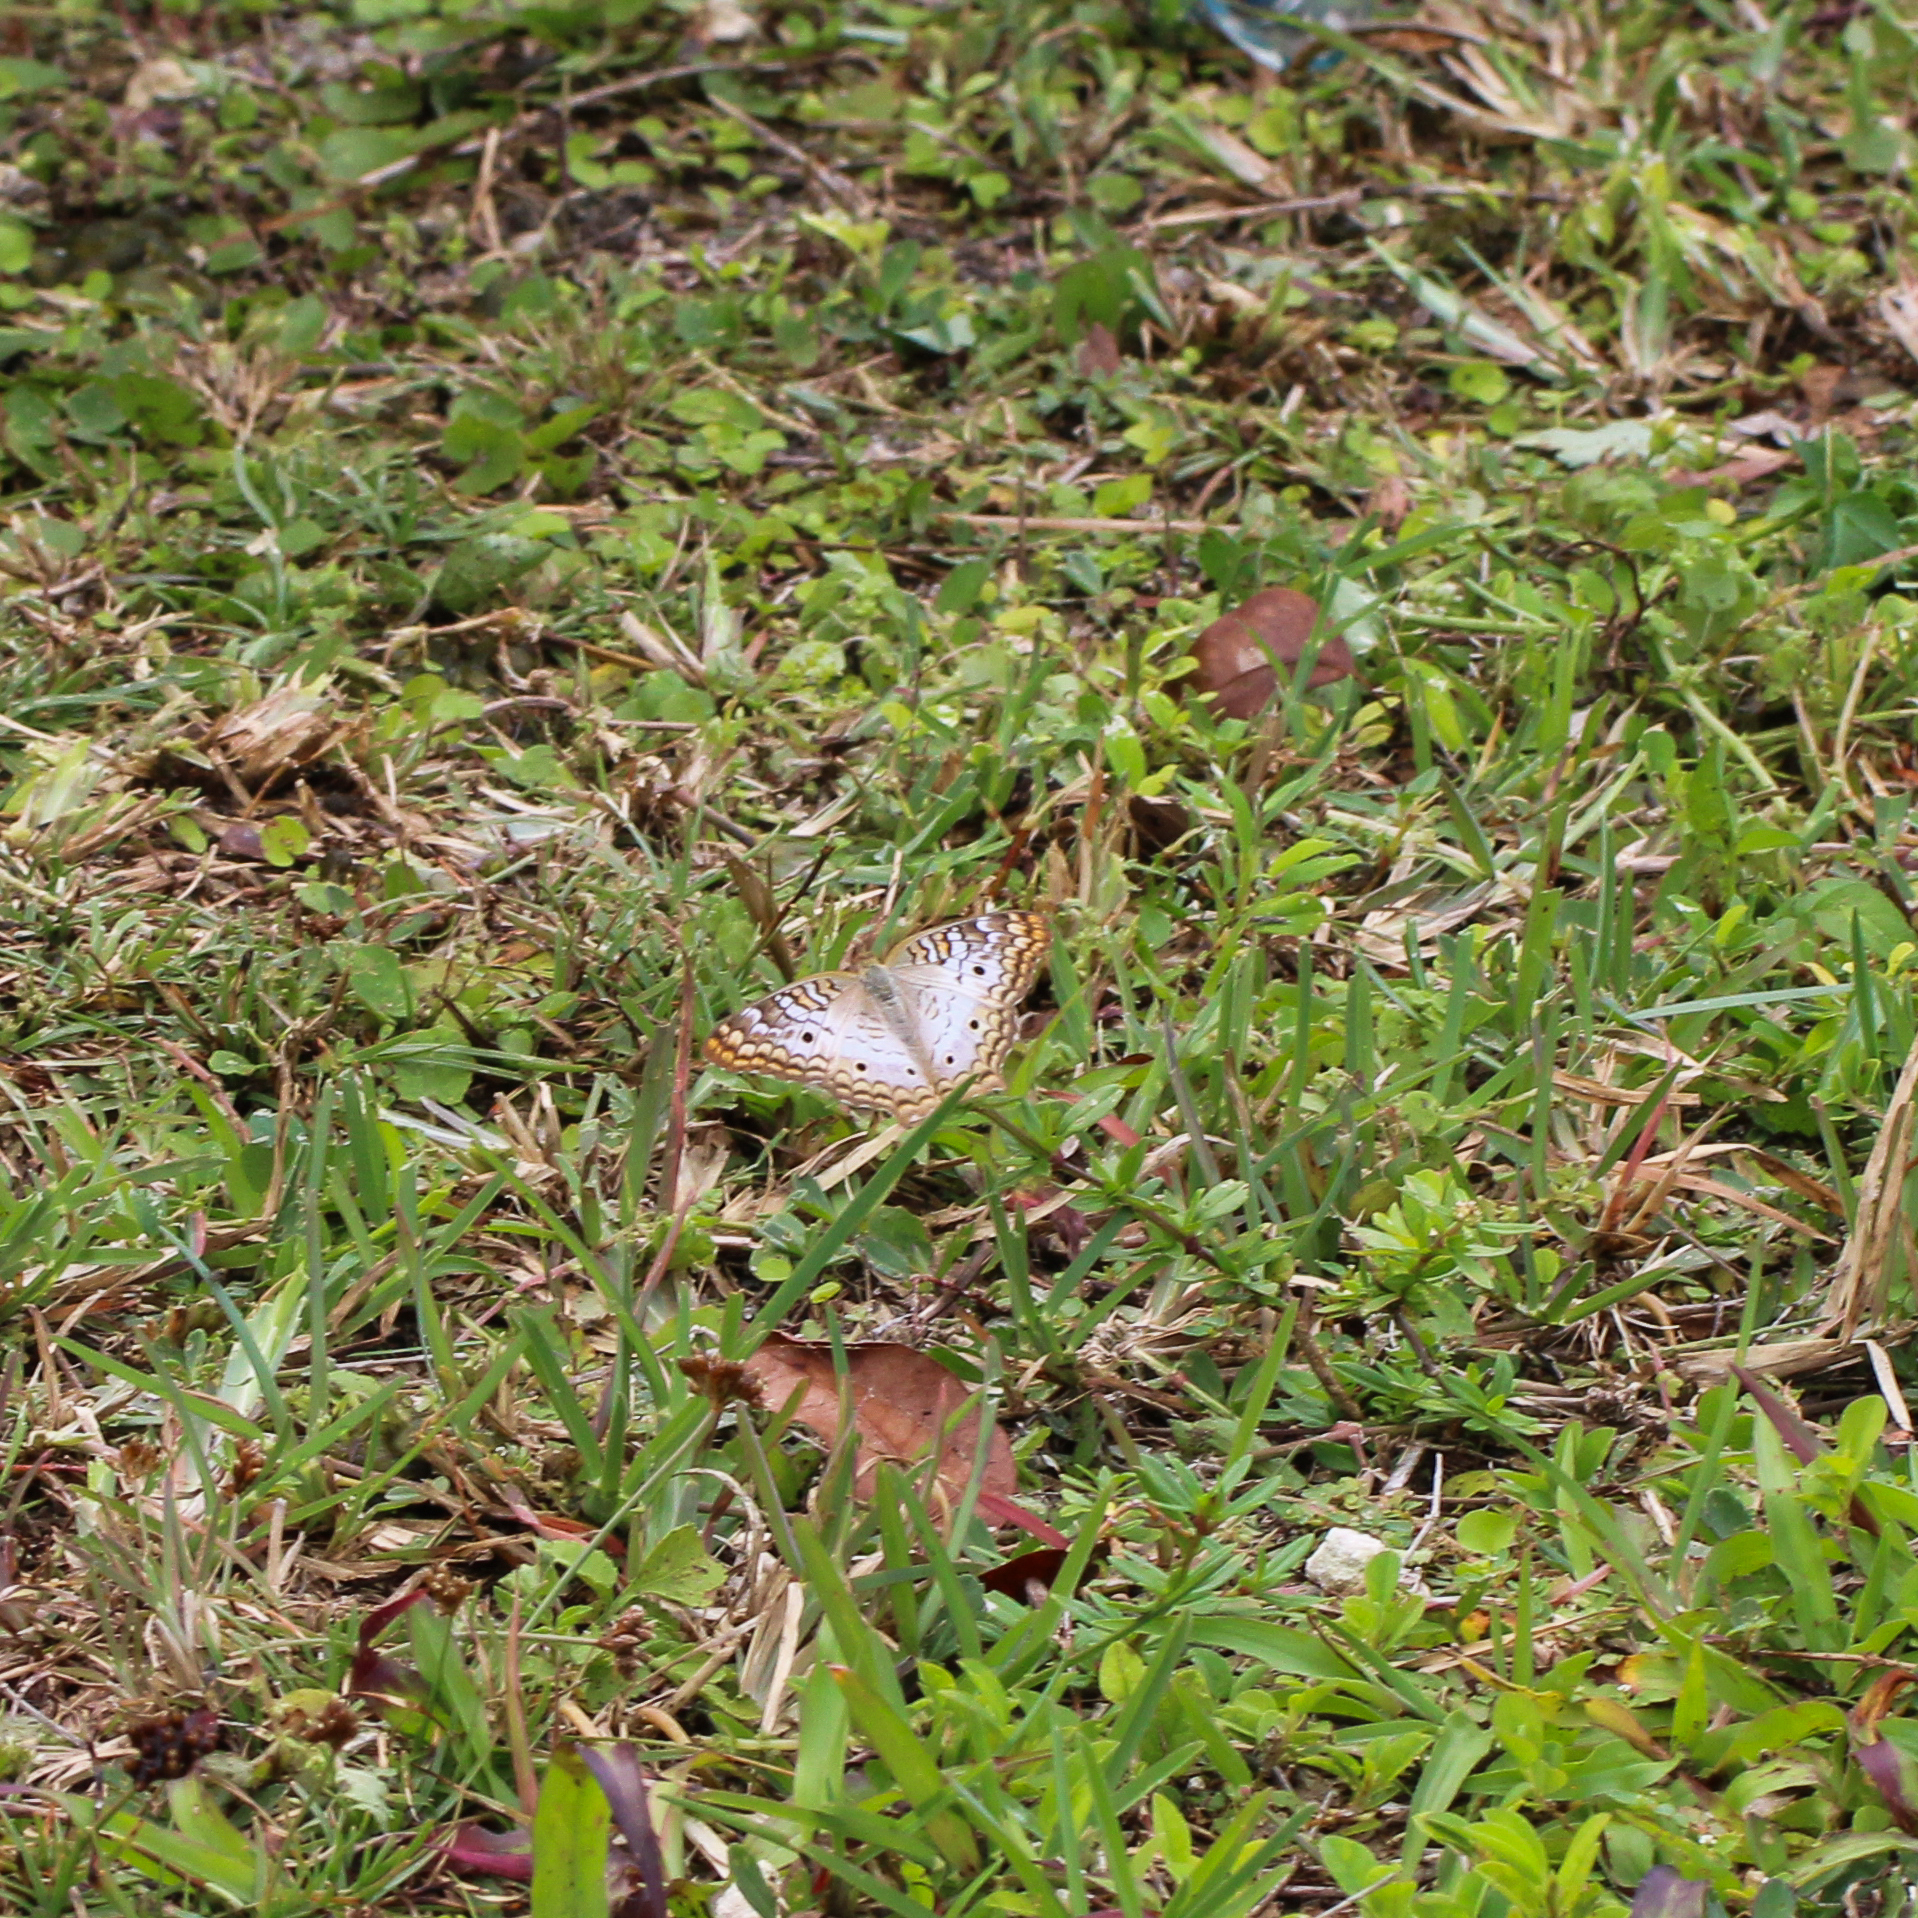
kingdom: Animalia
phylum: Arthropoda
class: Insecta
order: Lepidoptera
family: Nymphalidae
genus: Anartia
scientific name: Anartia jatrophae
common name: White peacock
